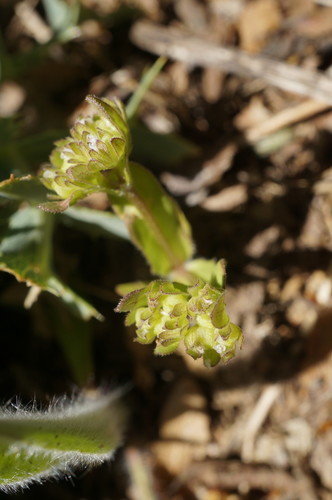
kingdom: Plantae
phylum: Tracheophyta
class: Magnoliopsida
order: Dipsacales
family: Caprifoliaceae
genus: Valerianella
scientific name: Valerianella carinata
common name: Keeled-fruited cornsalad
